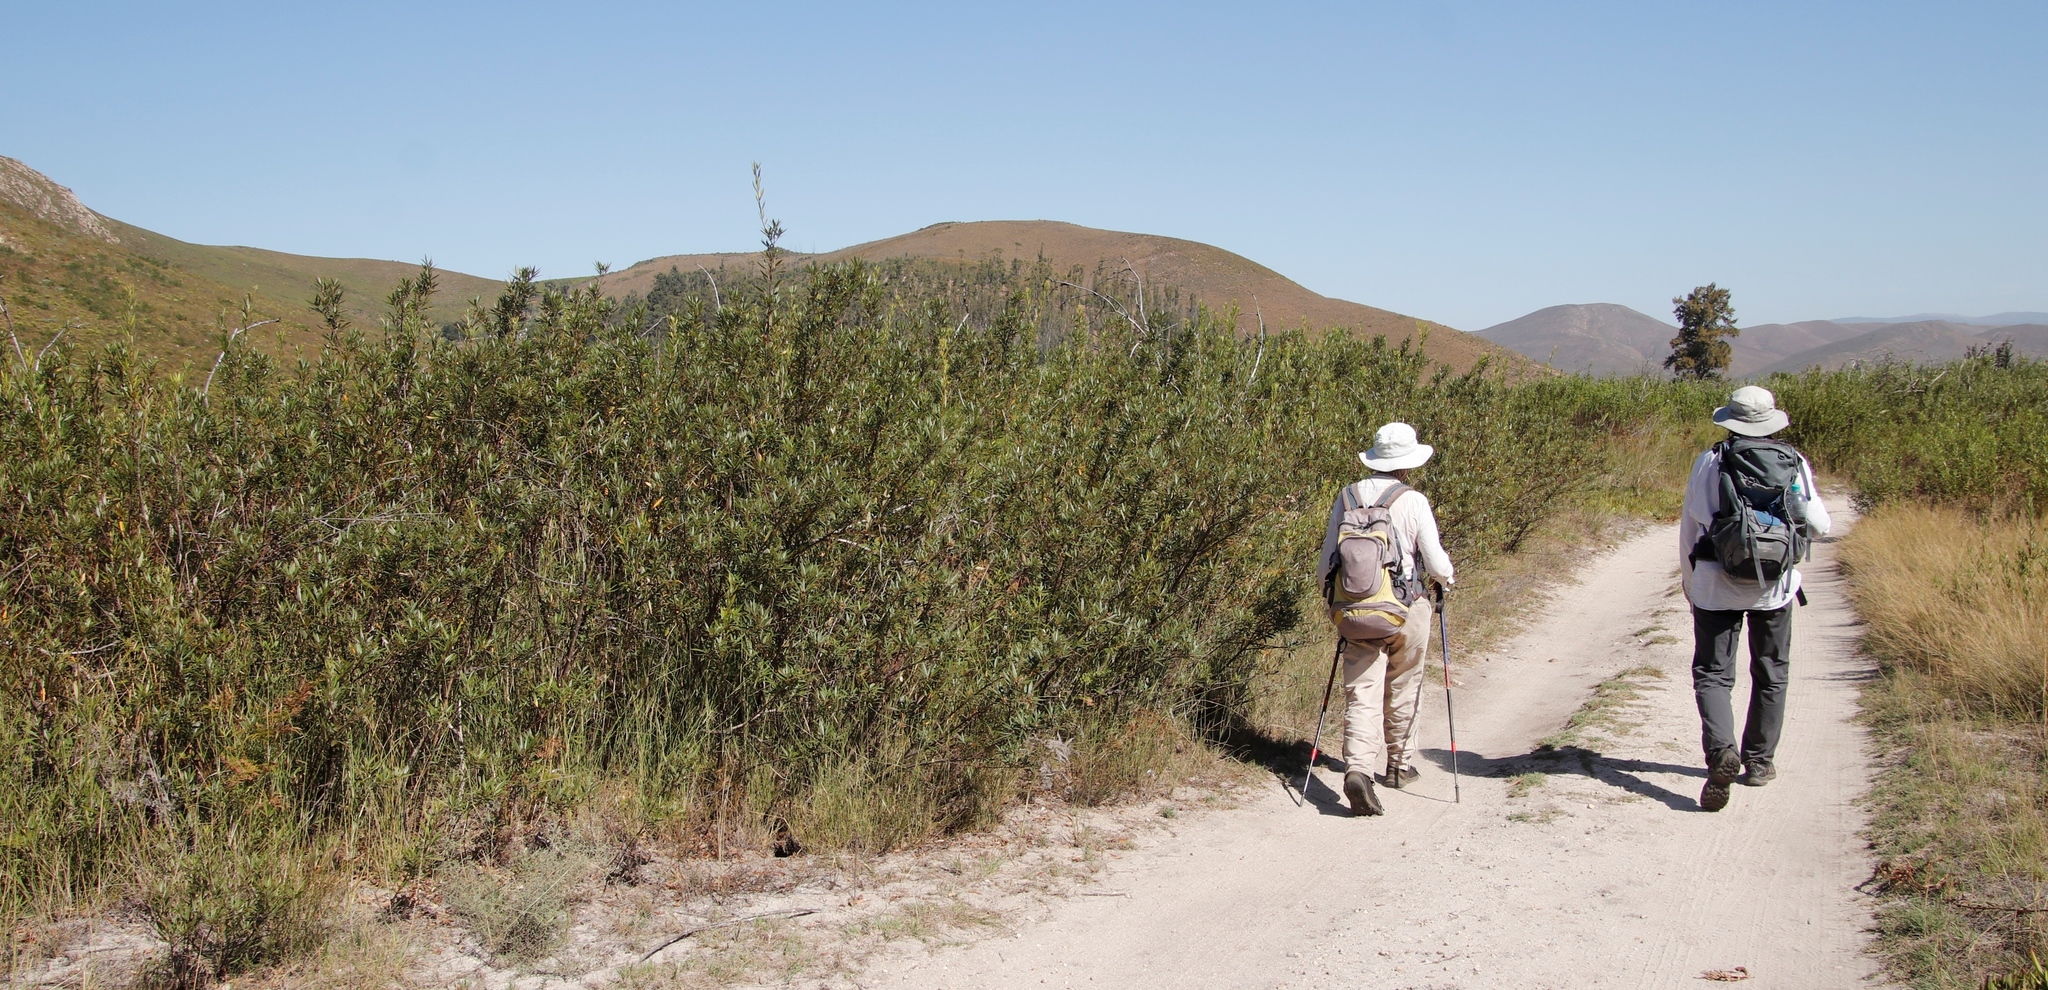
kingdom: Plantae
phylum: Tracheophyta
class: Magnoliopsida
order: Sapindales
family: Anacardiaceae
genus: Searsia
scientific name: Searsia angustifolia
